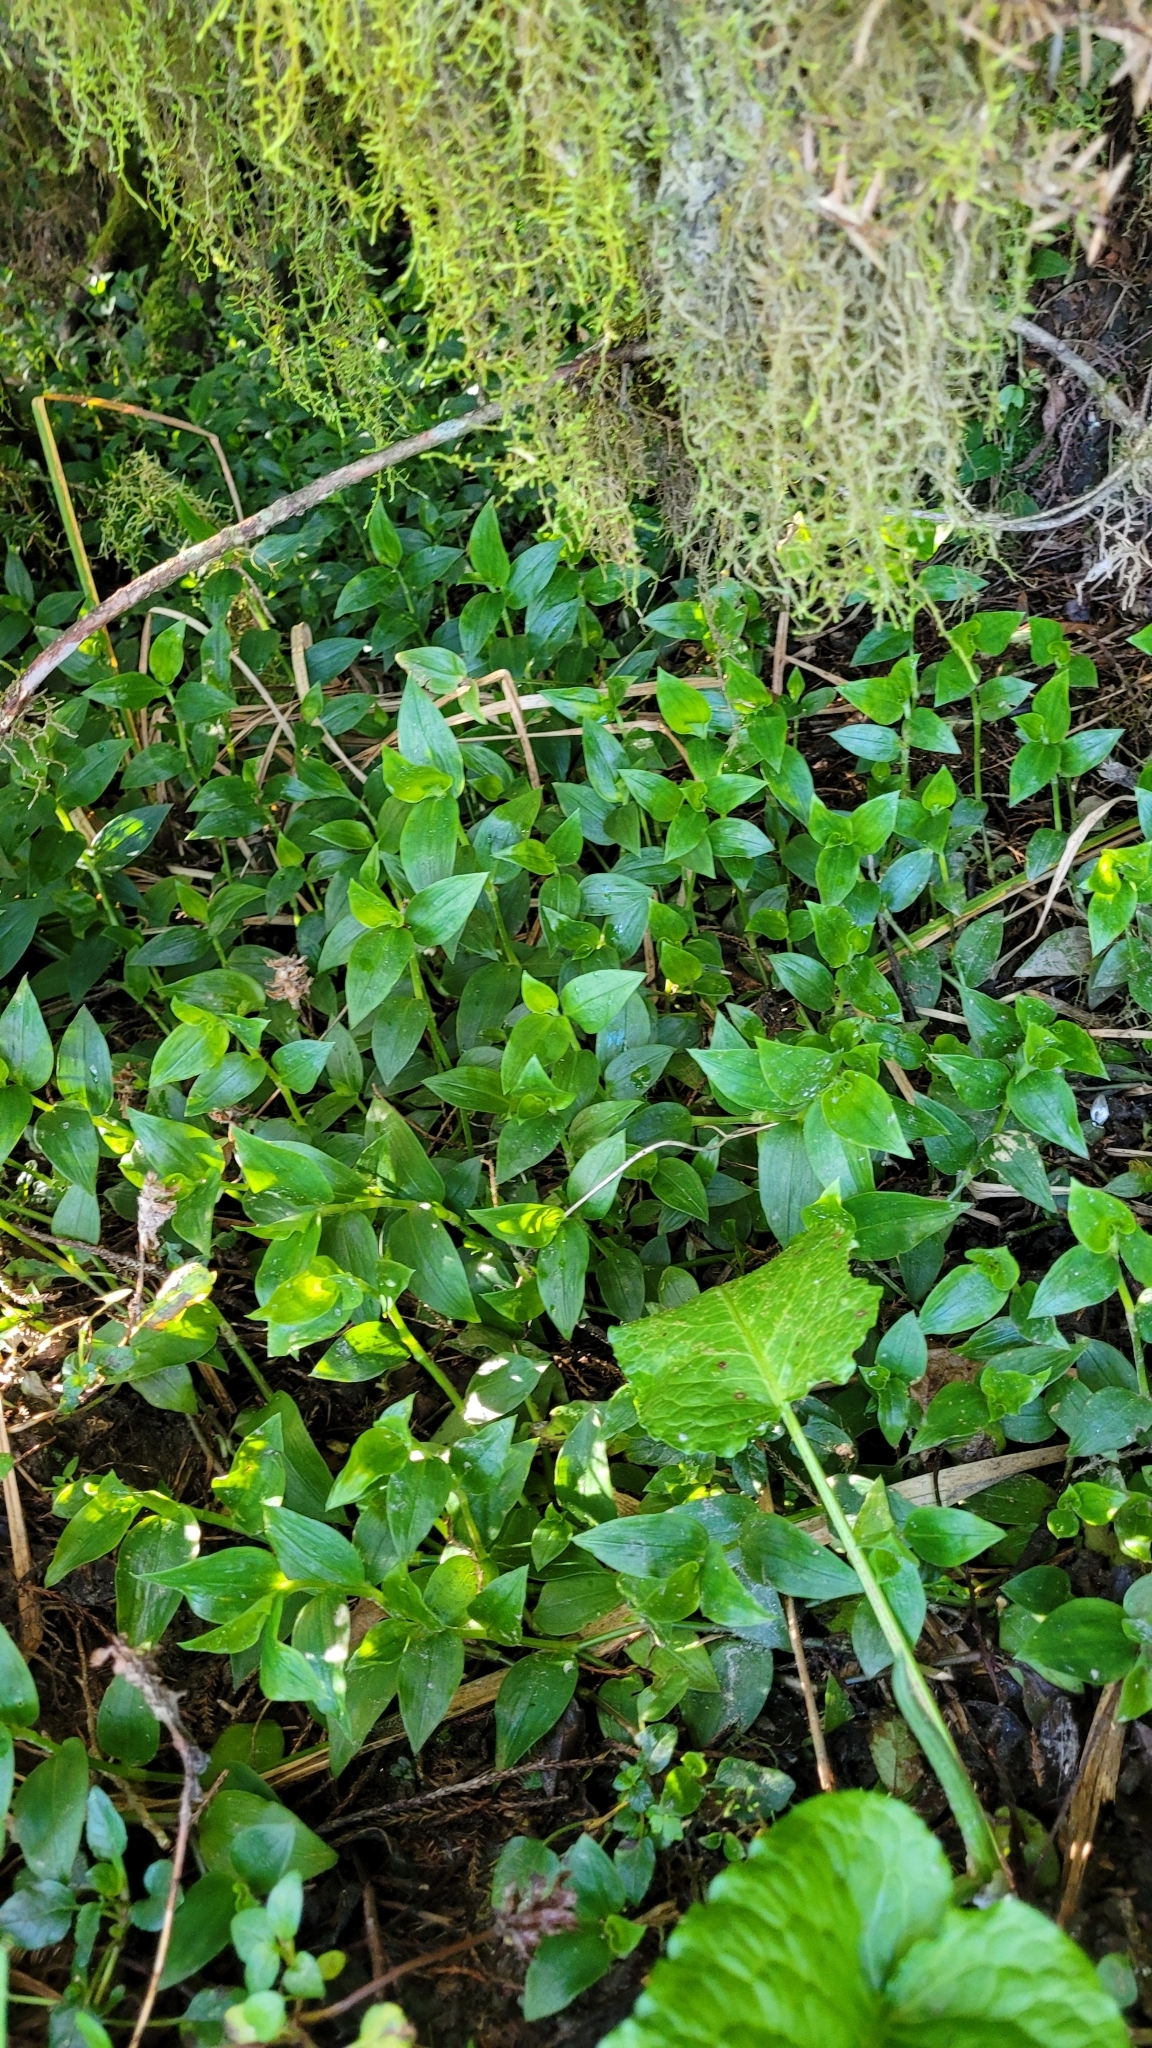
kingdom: Plantae
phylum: Tracheophyta
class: Liliopsida
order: Commelinales
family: Commelinaceae
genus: Tradescantia
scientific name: Tradescantia fluminensis
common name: Wandering-jew
